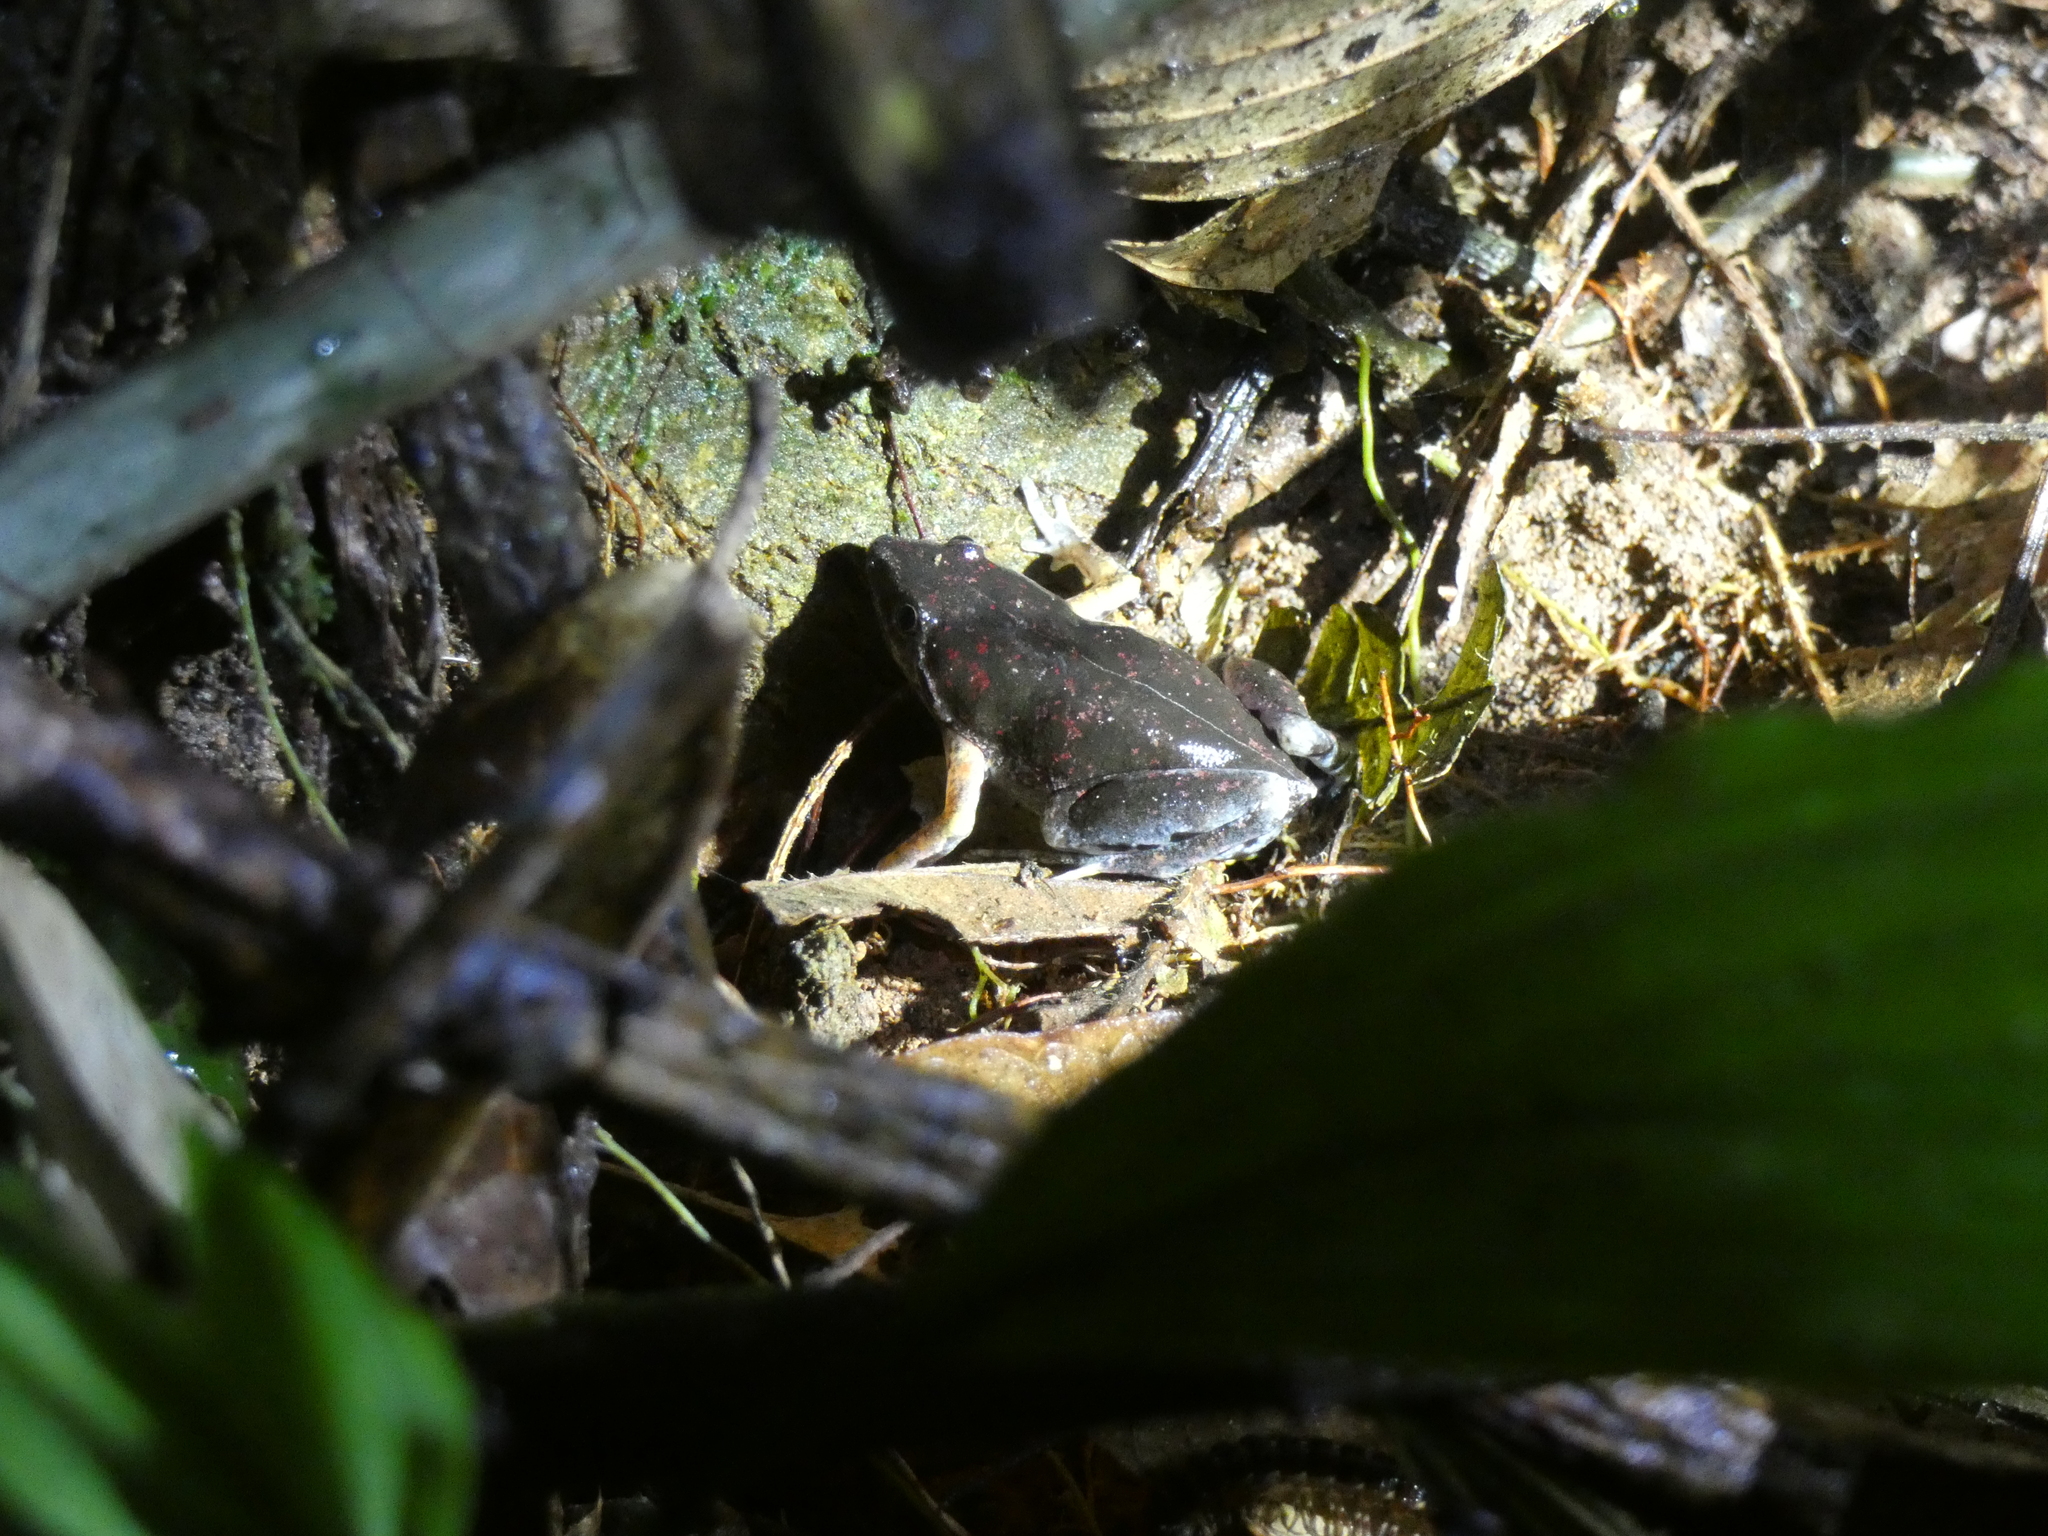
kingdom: Animalia
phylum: Chordata
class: Amphibia
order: Anura
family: Microhylidae
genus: Chiasmocleis
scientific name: Chiasmocleis bassleri
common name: Bassler's humming frog
